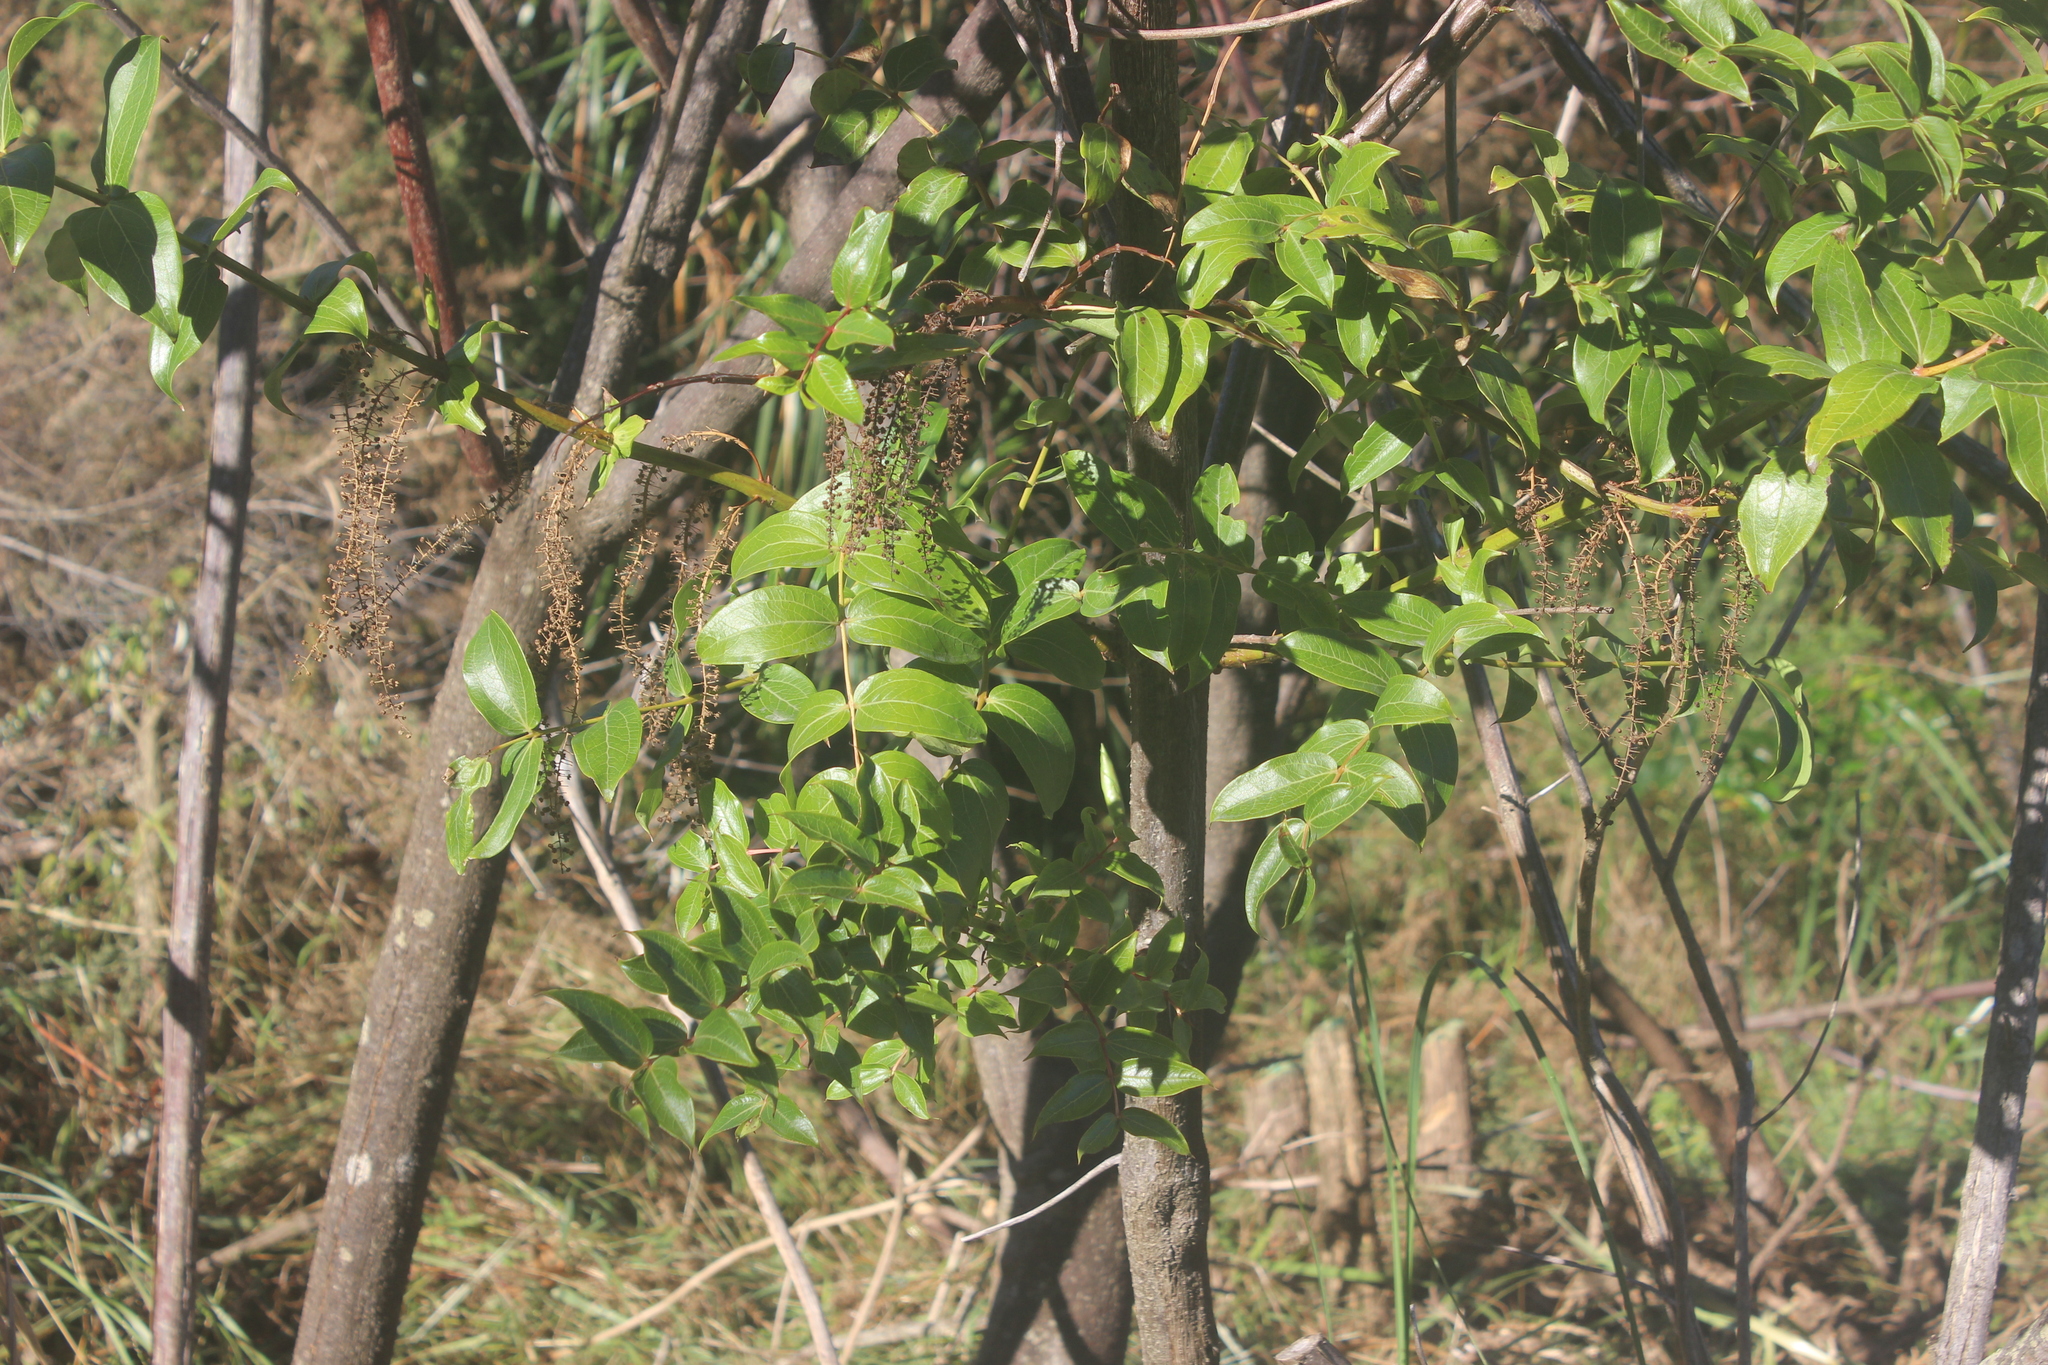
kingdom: Plantae
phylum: Tracheophyta
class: Magnoliopsida
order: Cucurbitales
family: Coriariaceae
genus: Coriaria
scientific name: Coriaria arborea
